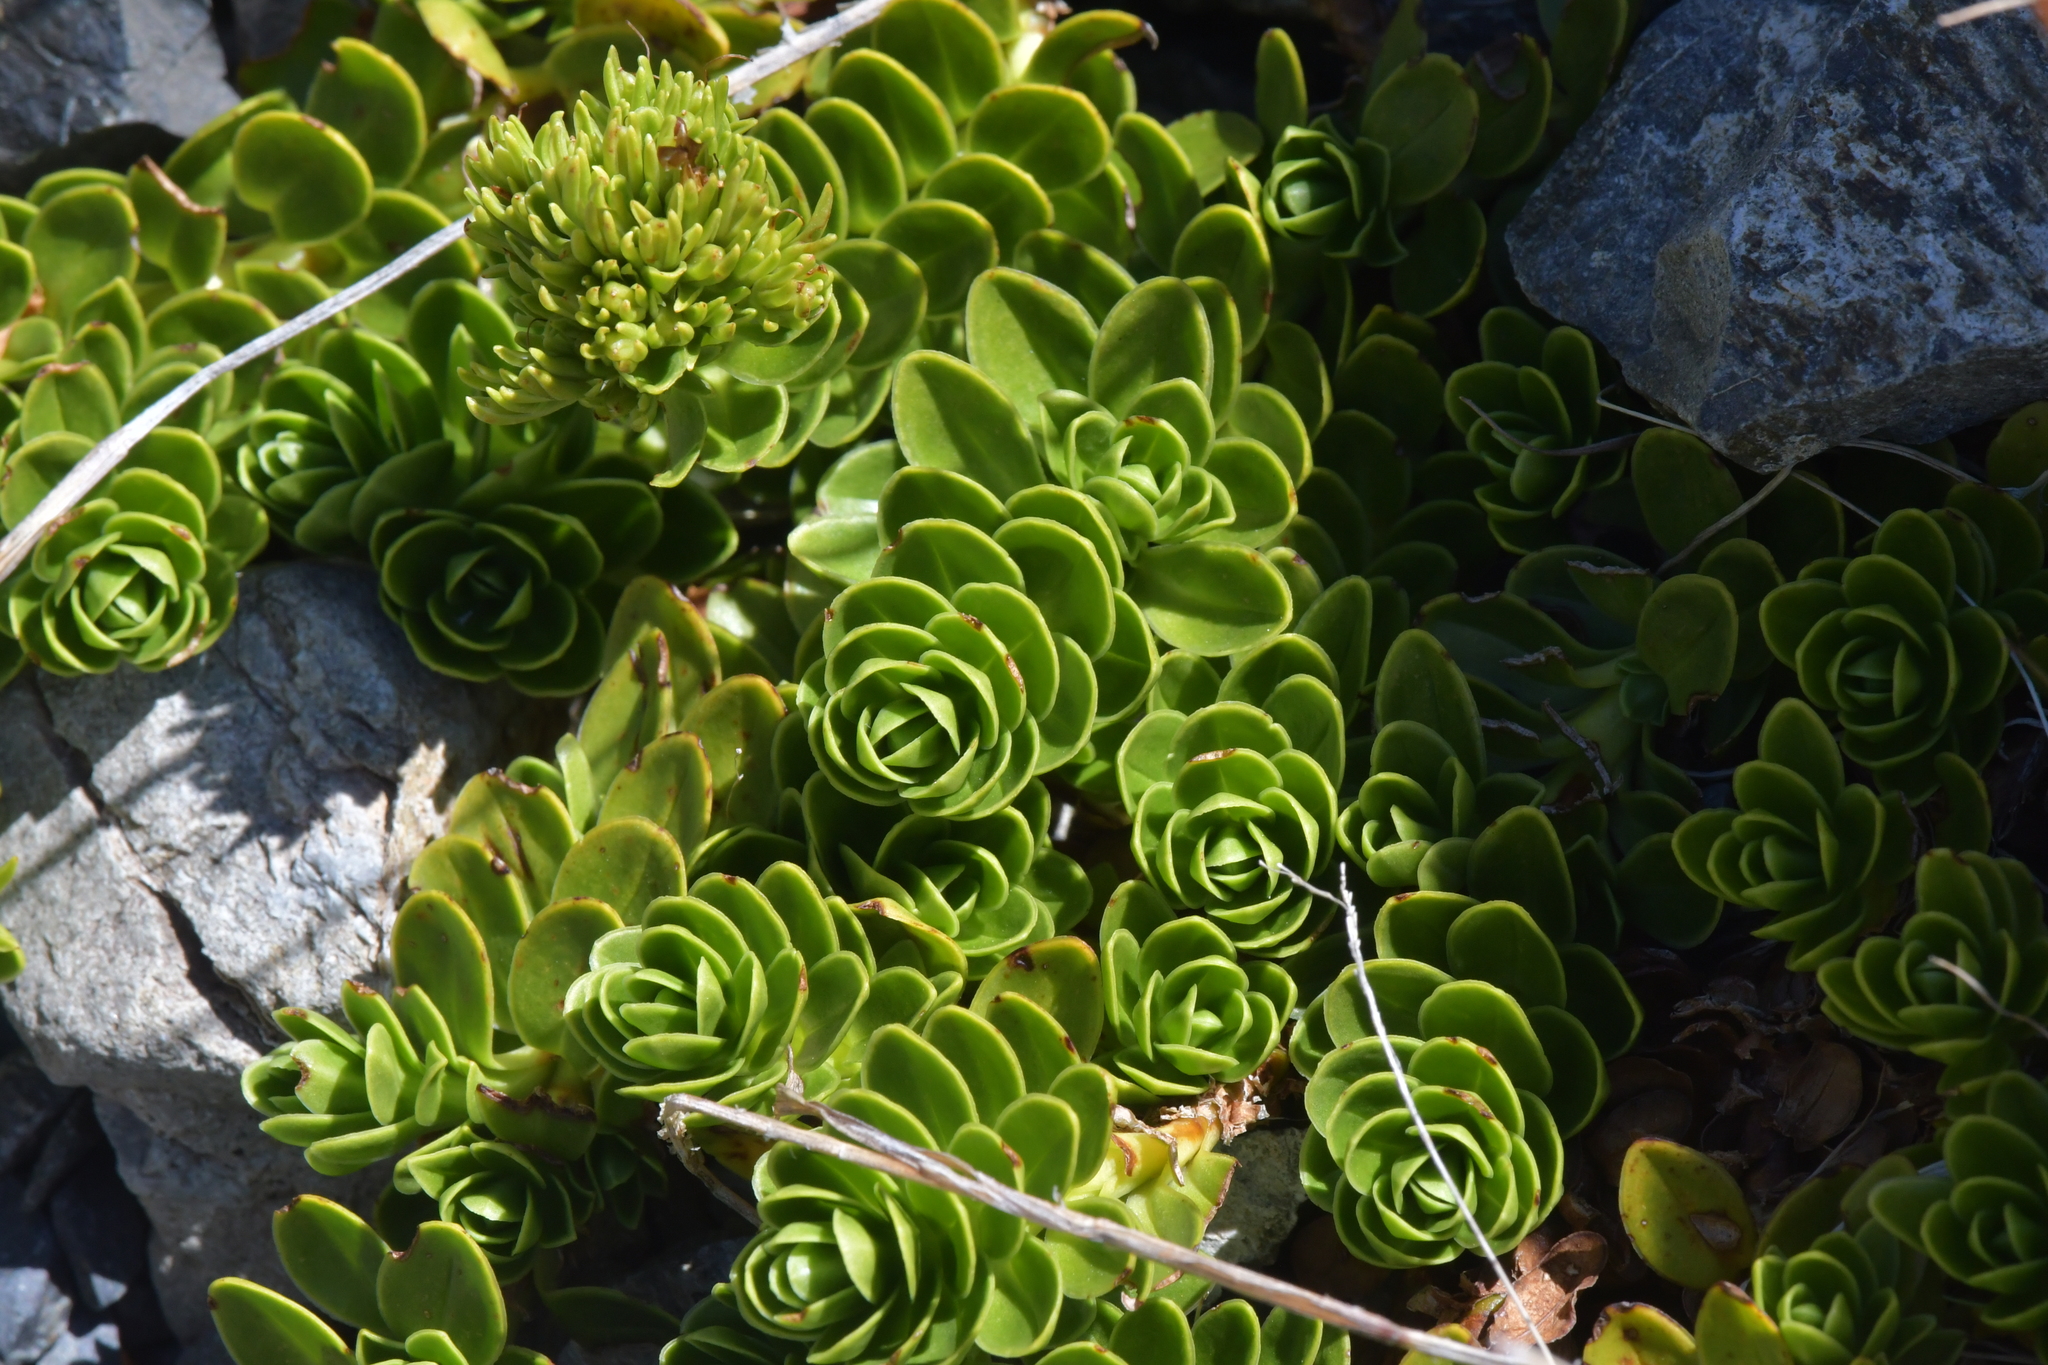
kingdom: Plantae
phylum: Tracheophyta
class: Magnoliopsida
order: Lamiales
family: Plantaginaceae
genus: Veronica
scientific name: Veronica macrocalyx
